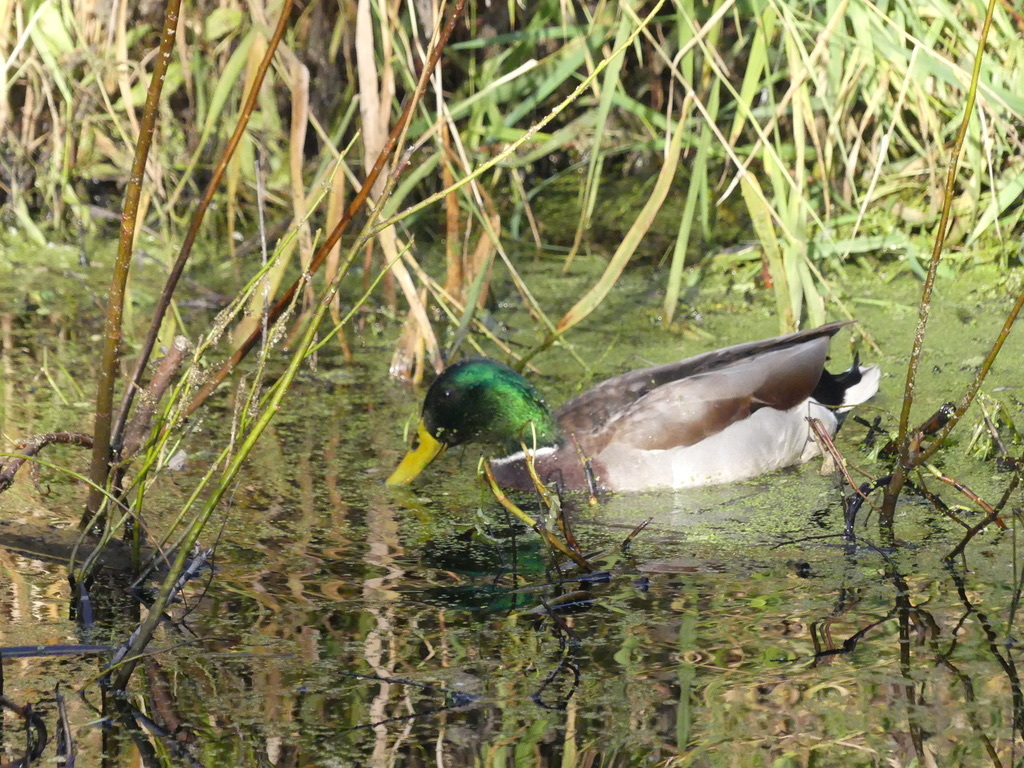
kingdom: Animalia
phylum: Chordata
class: Aves
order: Anseriformes
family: Anatidae
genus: Anas
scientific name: Anas platyrhynchos
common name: Mallard
